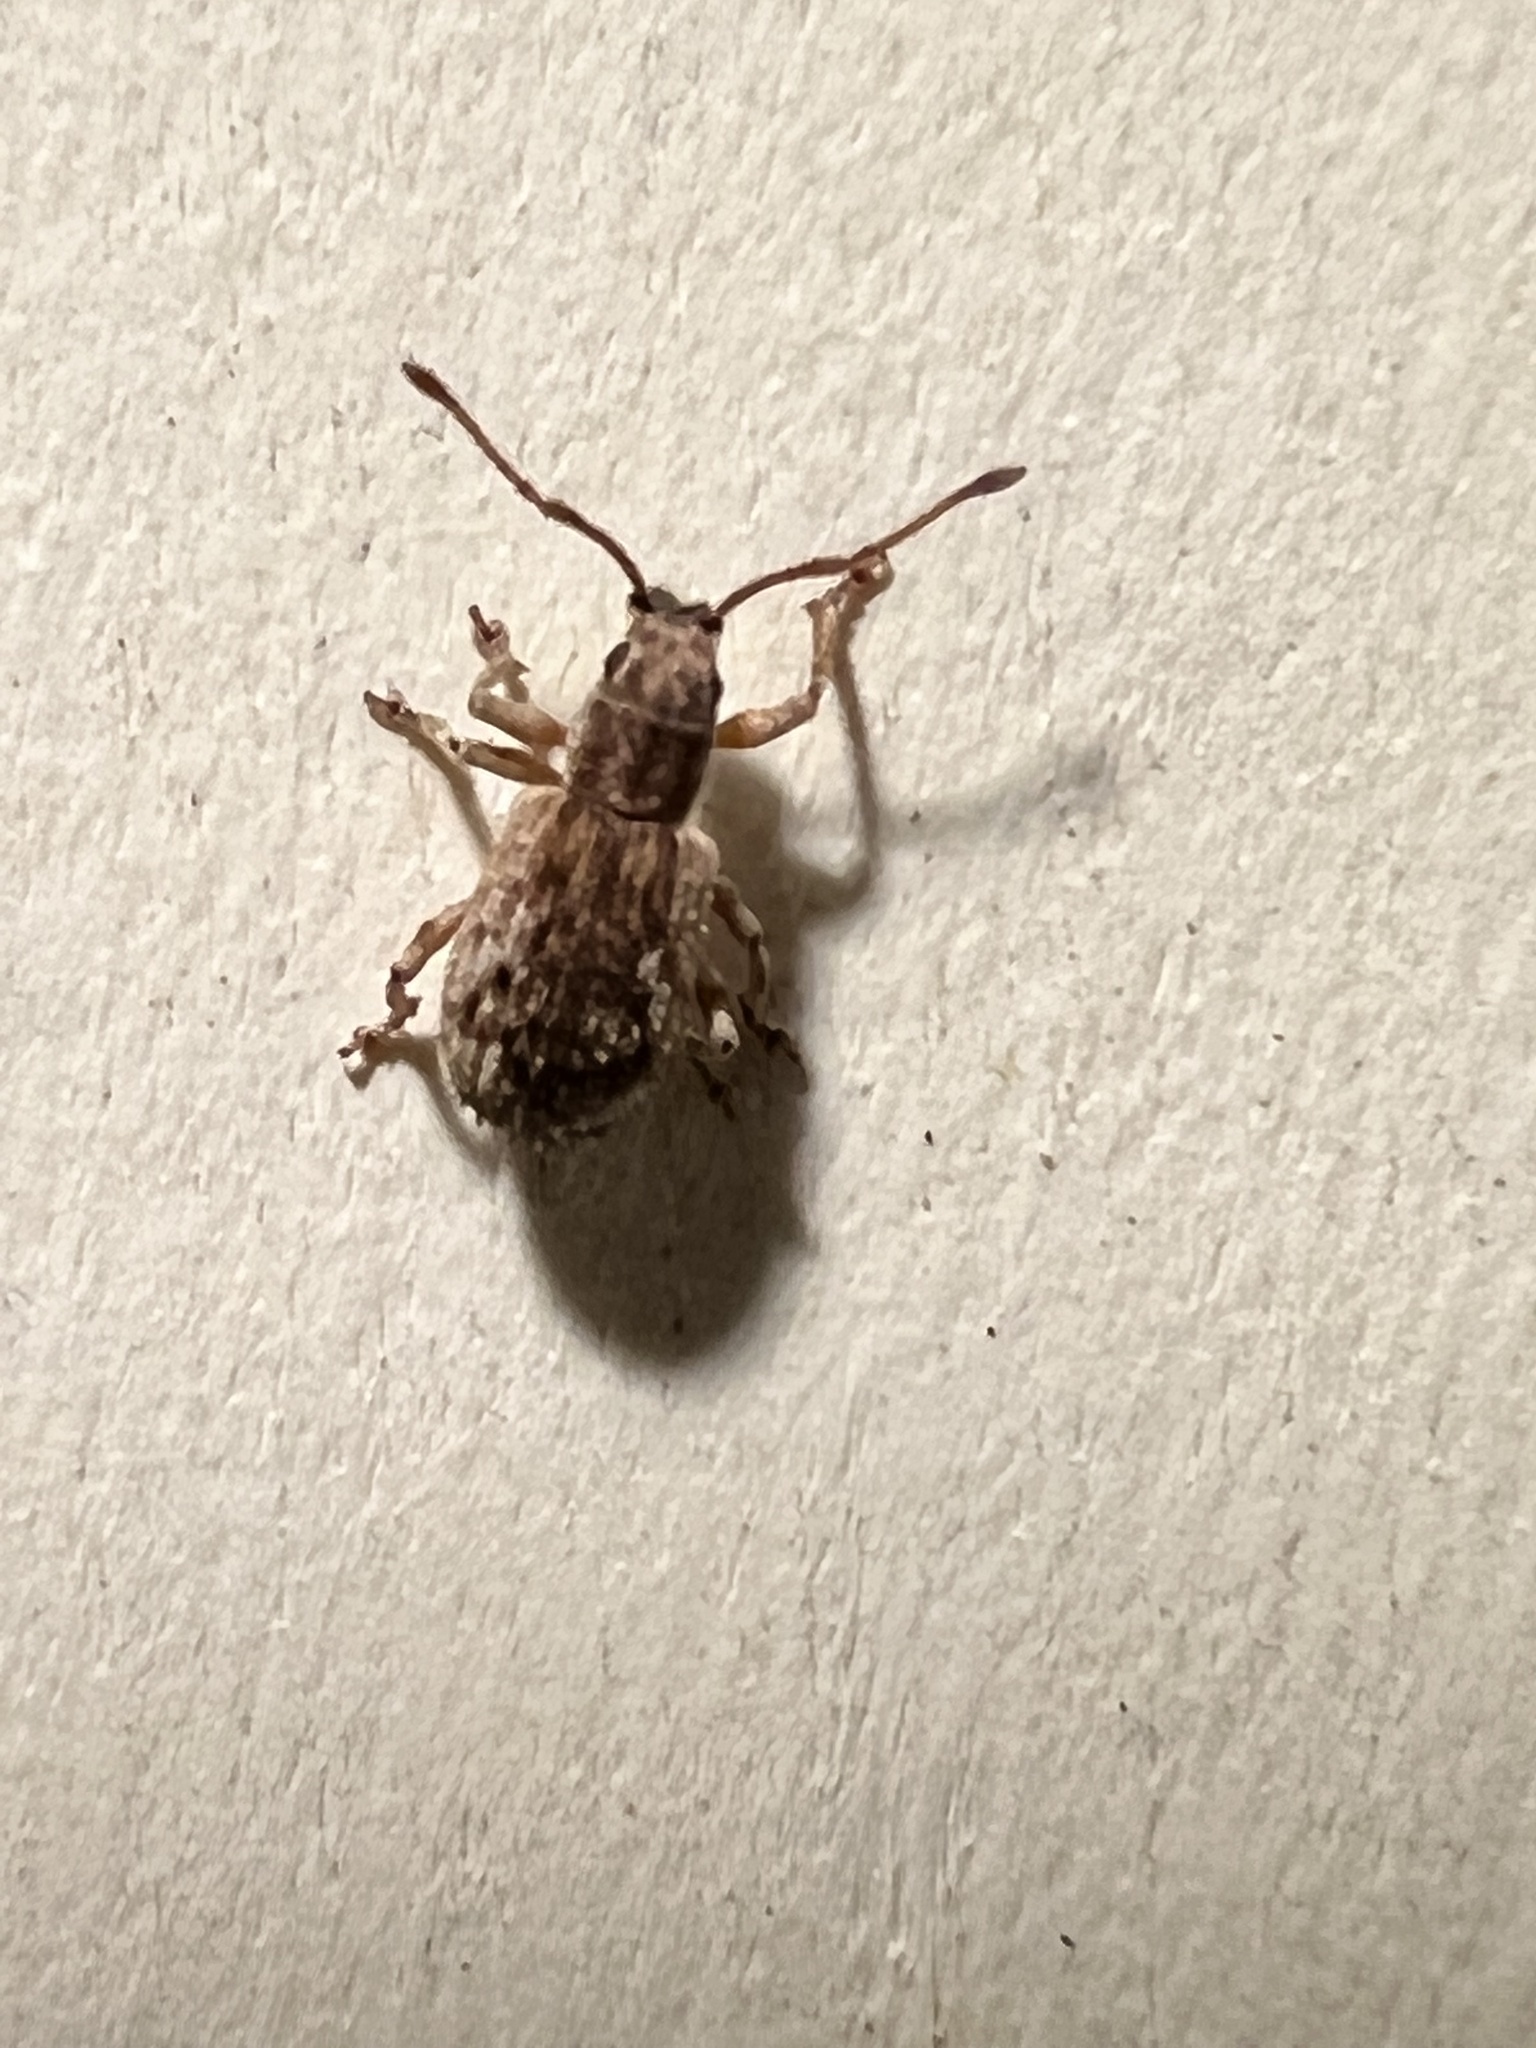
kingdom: Animalia
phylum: Arthropoda
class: Insecta
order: Coleoptera
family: Curculionidae
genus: Pseudoedophrys
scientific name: Pseudoedophrys hilleri
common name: Weevil
